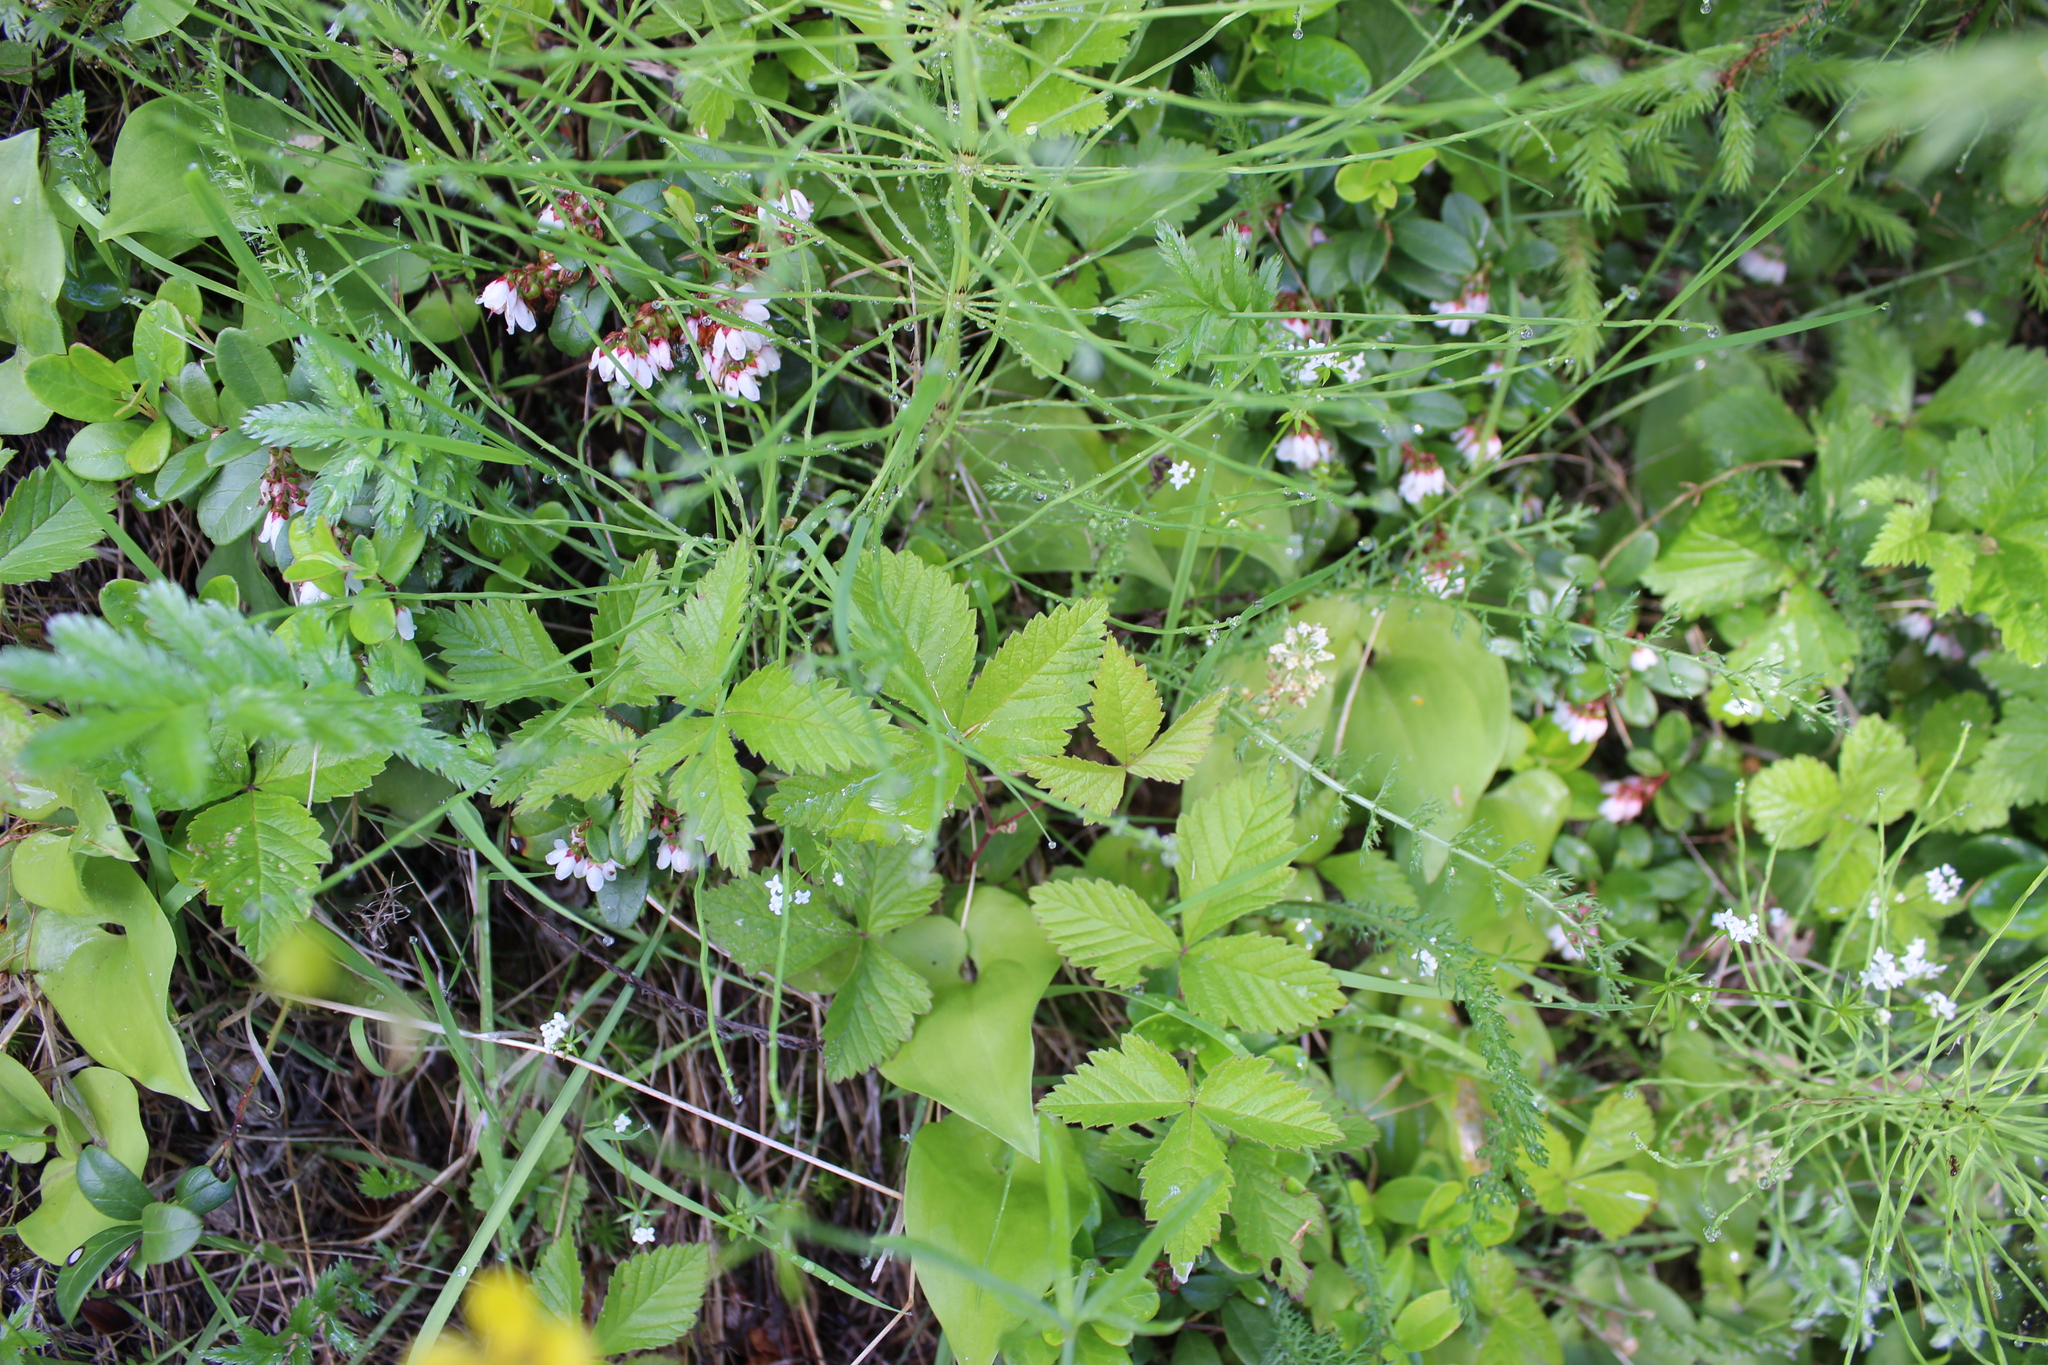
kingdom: Plantae
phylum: Tracheophyta
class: Magnoliopsida
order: Rosales
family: Rosaceae
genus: Rubus
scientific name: Rubus arcticus
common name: Arctic bramble
